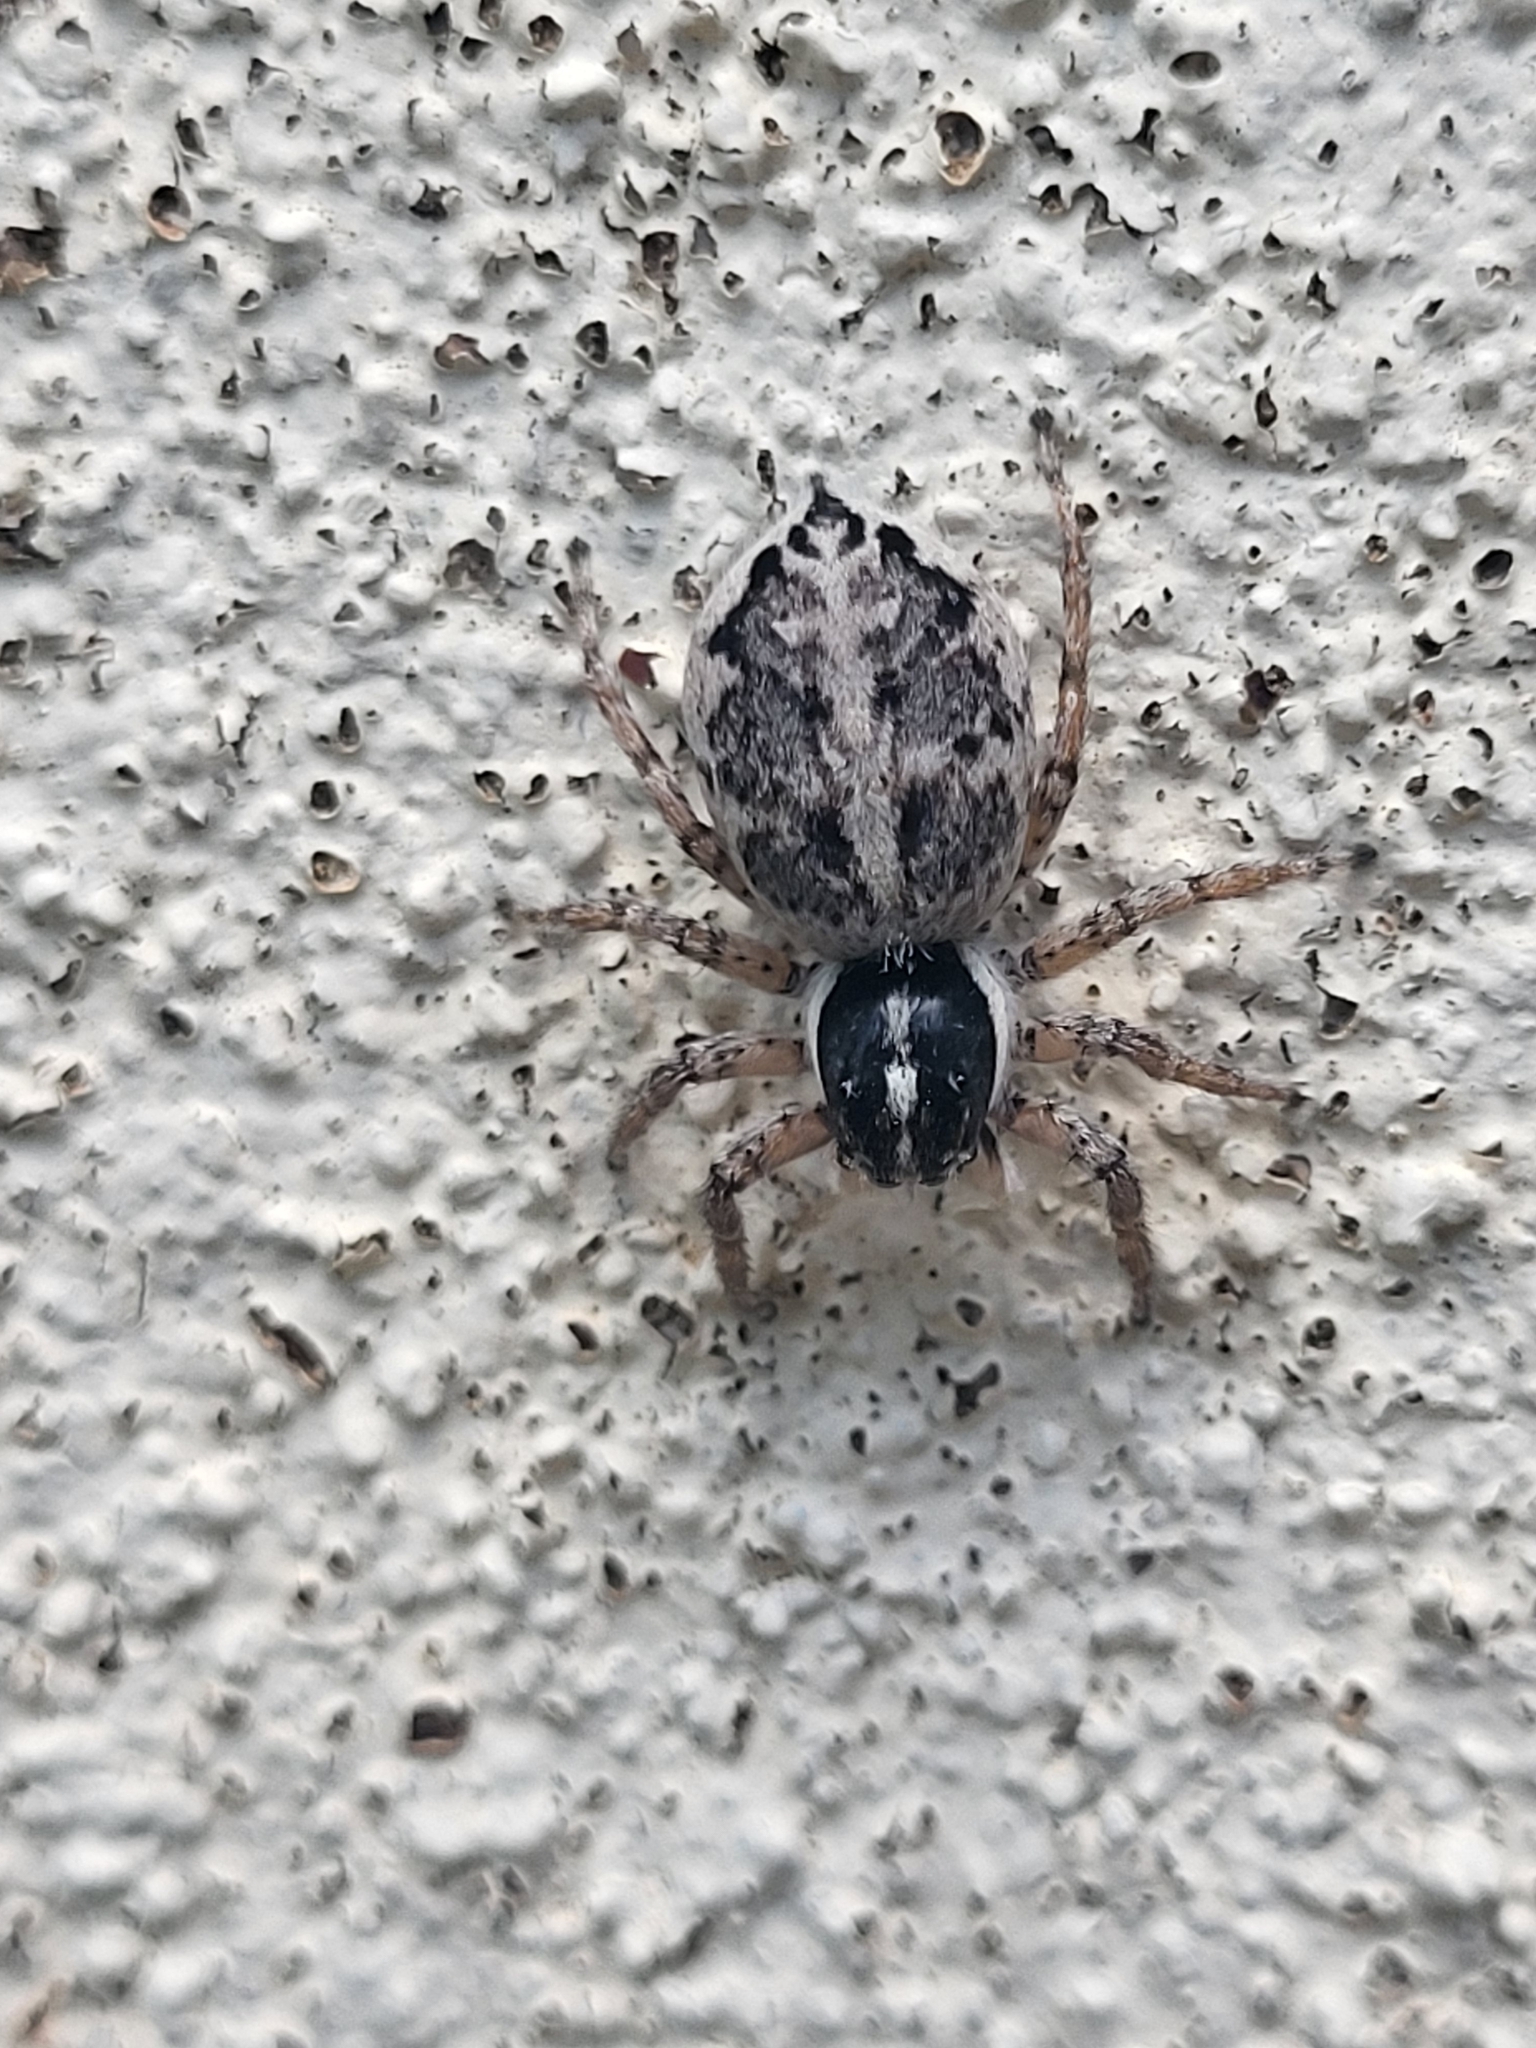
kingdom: Animalia
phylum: Arthropoda
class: Arachnida
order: Araneae
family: Salticidae
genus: Menemerus
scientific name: Menemerus semilimbatus
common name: Jumping spider
